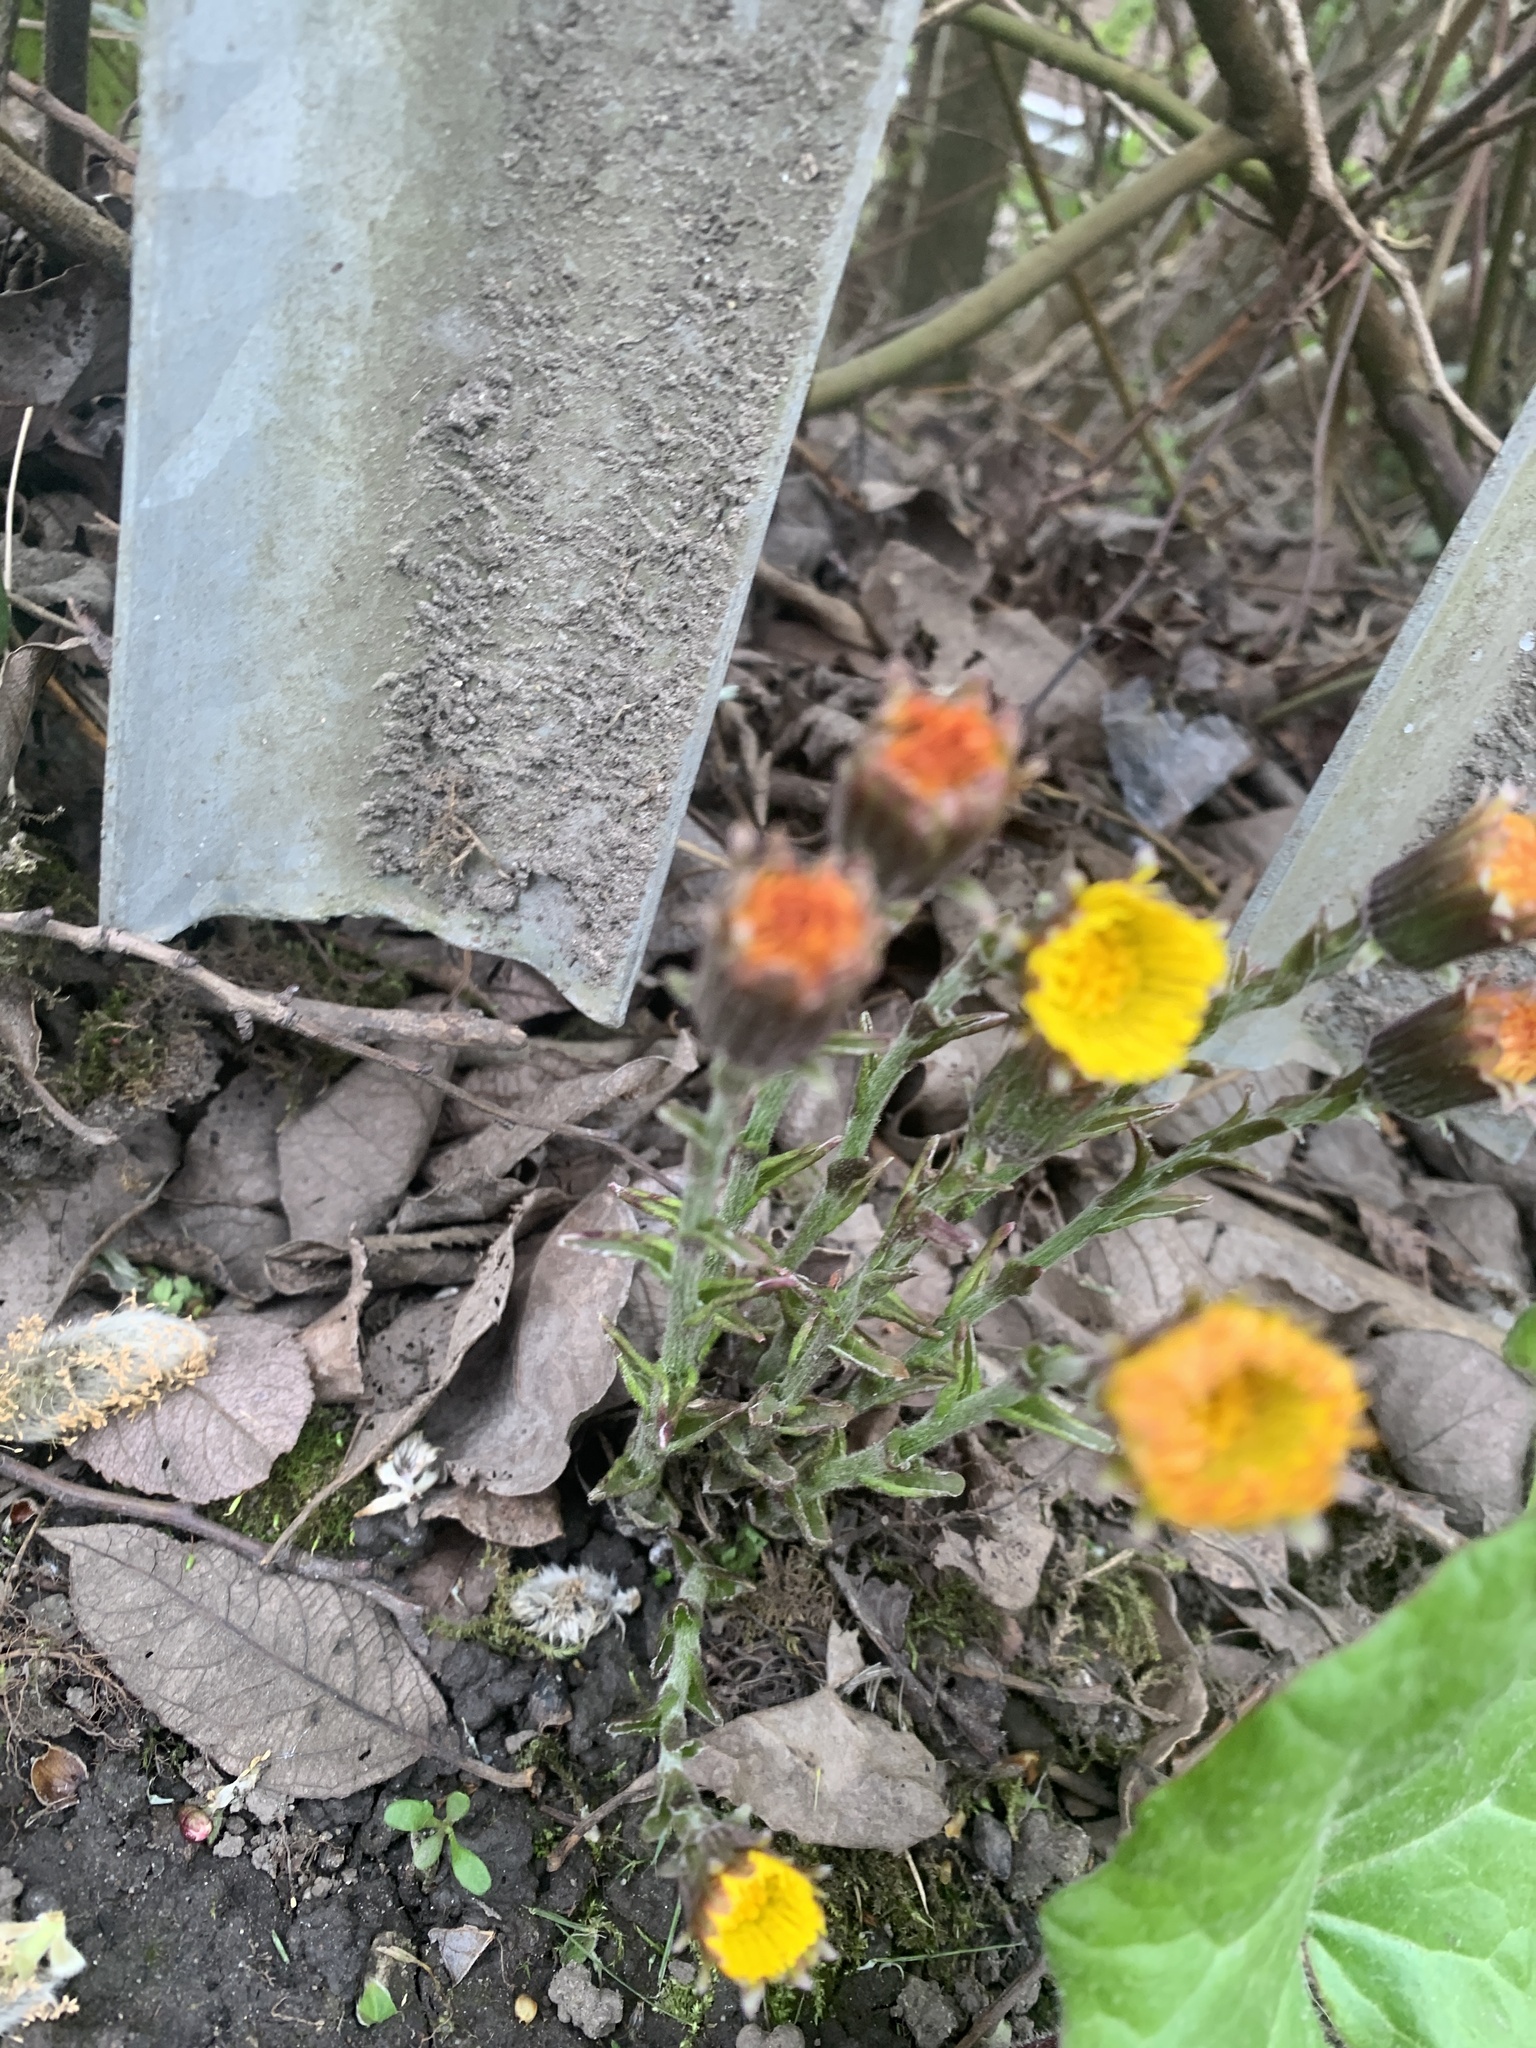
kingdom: Plantae
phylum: Tracheophyta
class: Magnoliopsida
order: Asterales
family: Asteraceae
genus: Tussilago
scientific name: Tussilago farfara
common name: Coltsfoot
